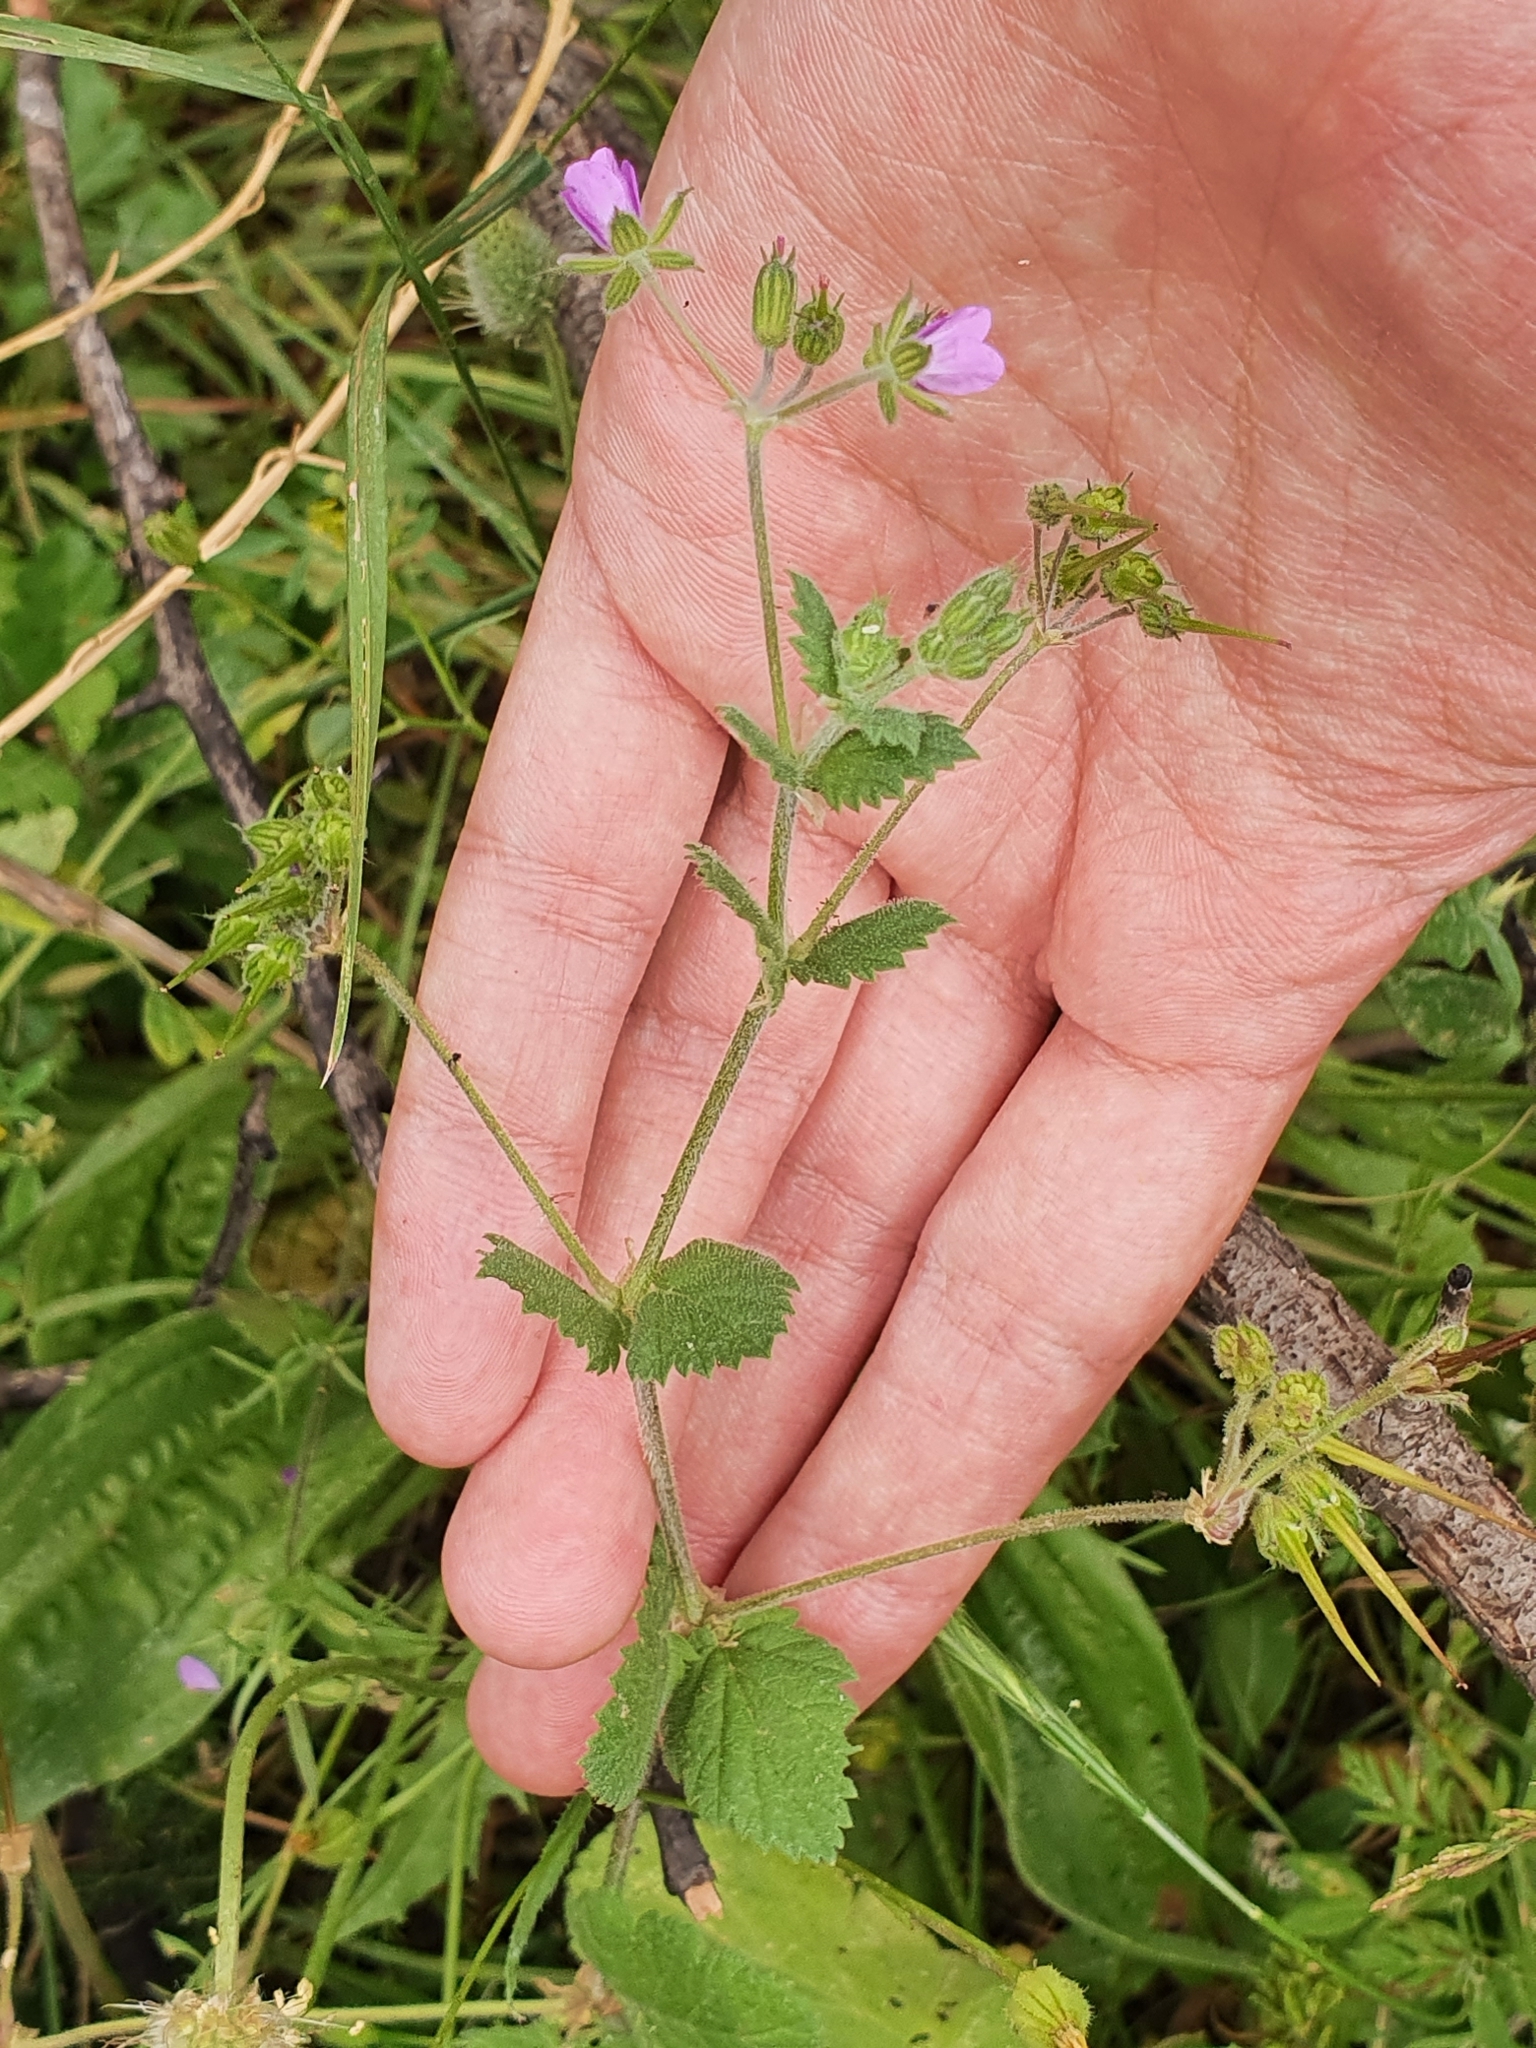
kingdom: Plantae
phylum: Tracheophyta
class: Magnoliopsida
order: Geraniales
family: Geraniaceae
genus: Erodium
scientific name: Erodium malacoides
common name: Soft stork's-bill
